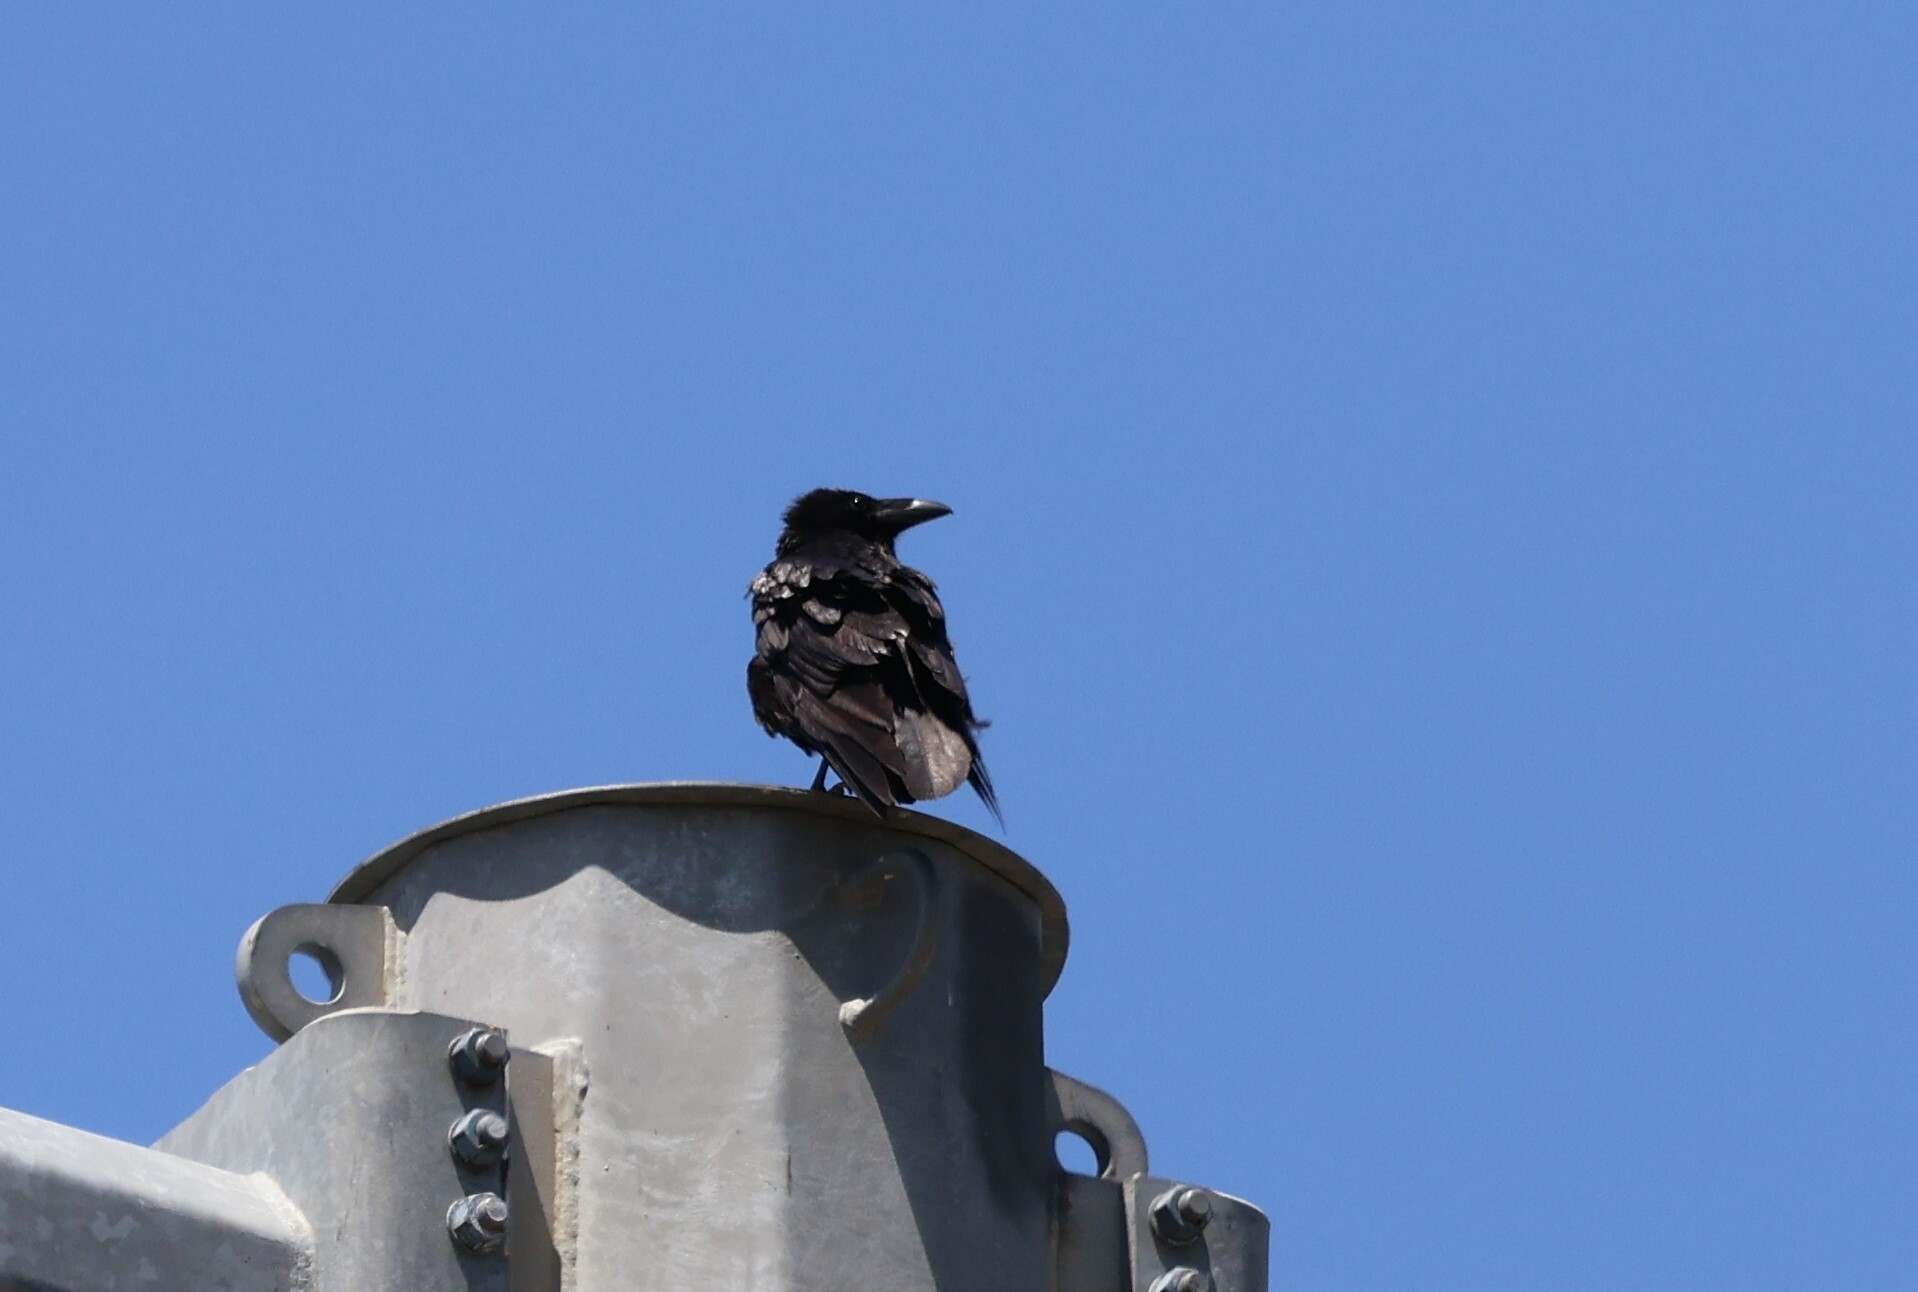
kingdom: Animalia
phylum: Chordata
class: Aves
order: Passeriformes
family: Corvidae
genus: Corvus
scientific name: Corvus corax
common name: Common raven
